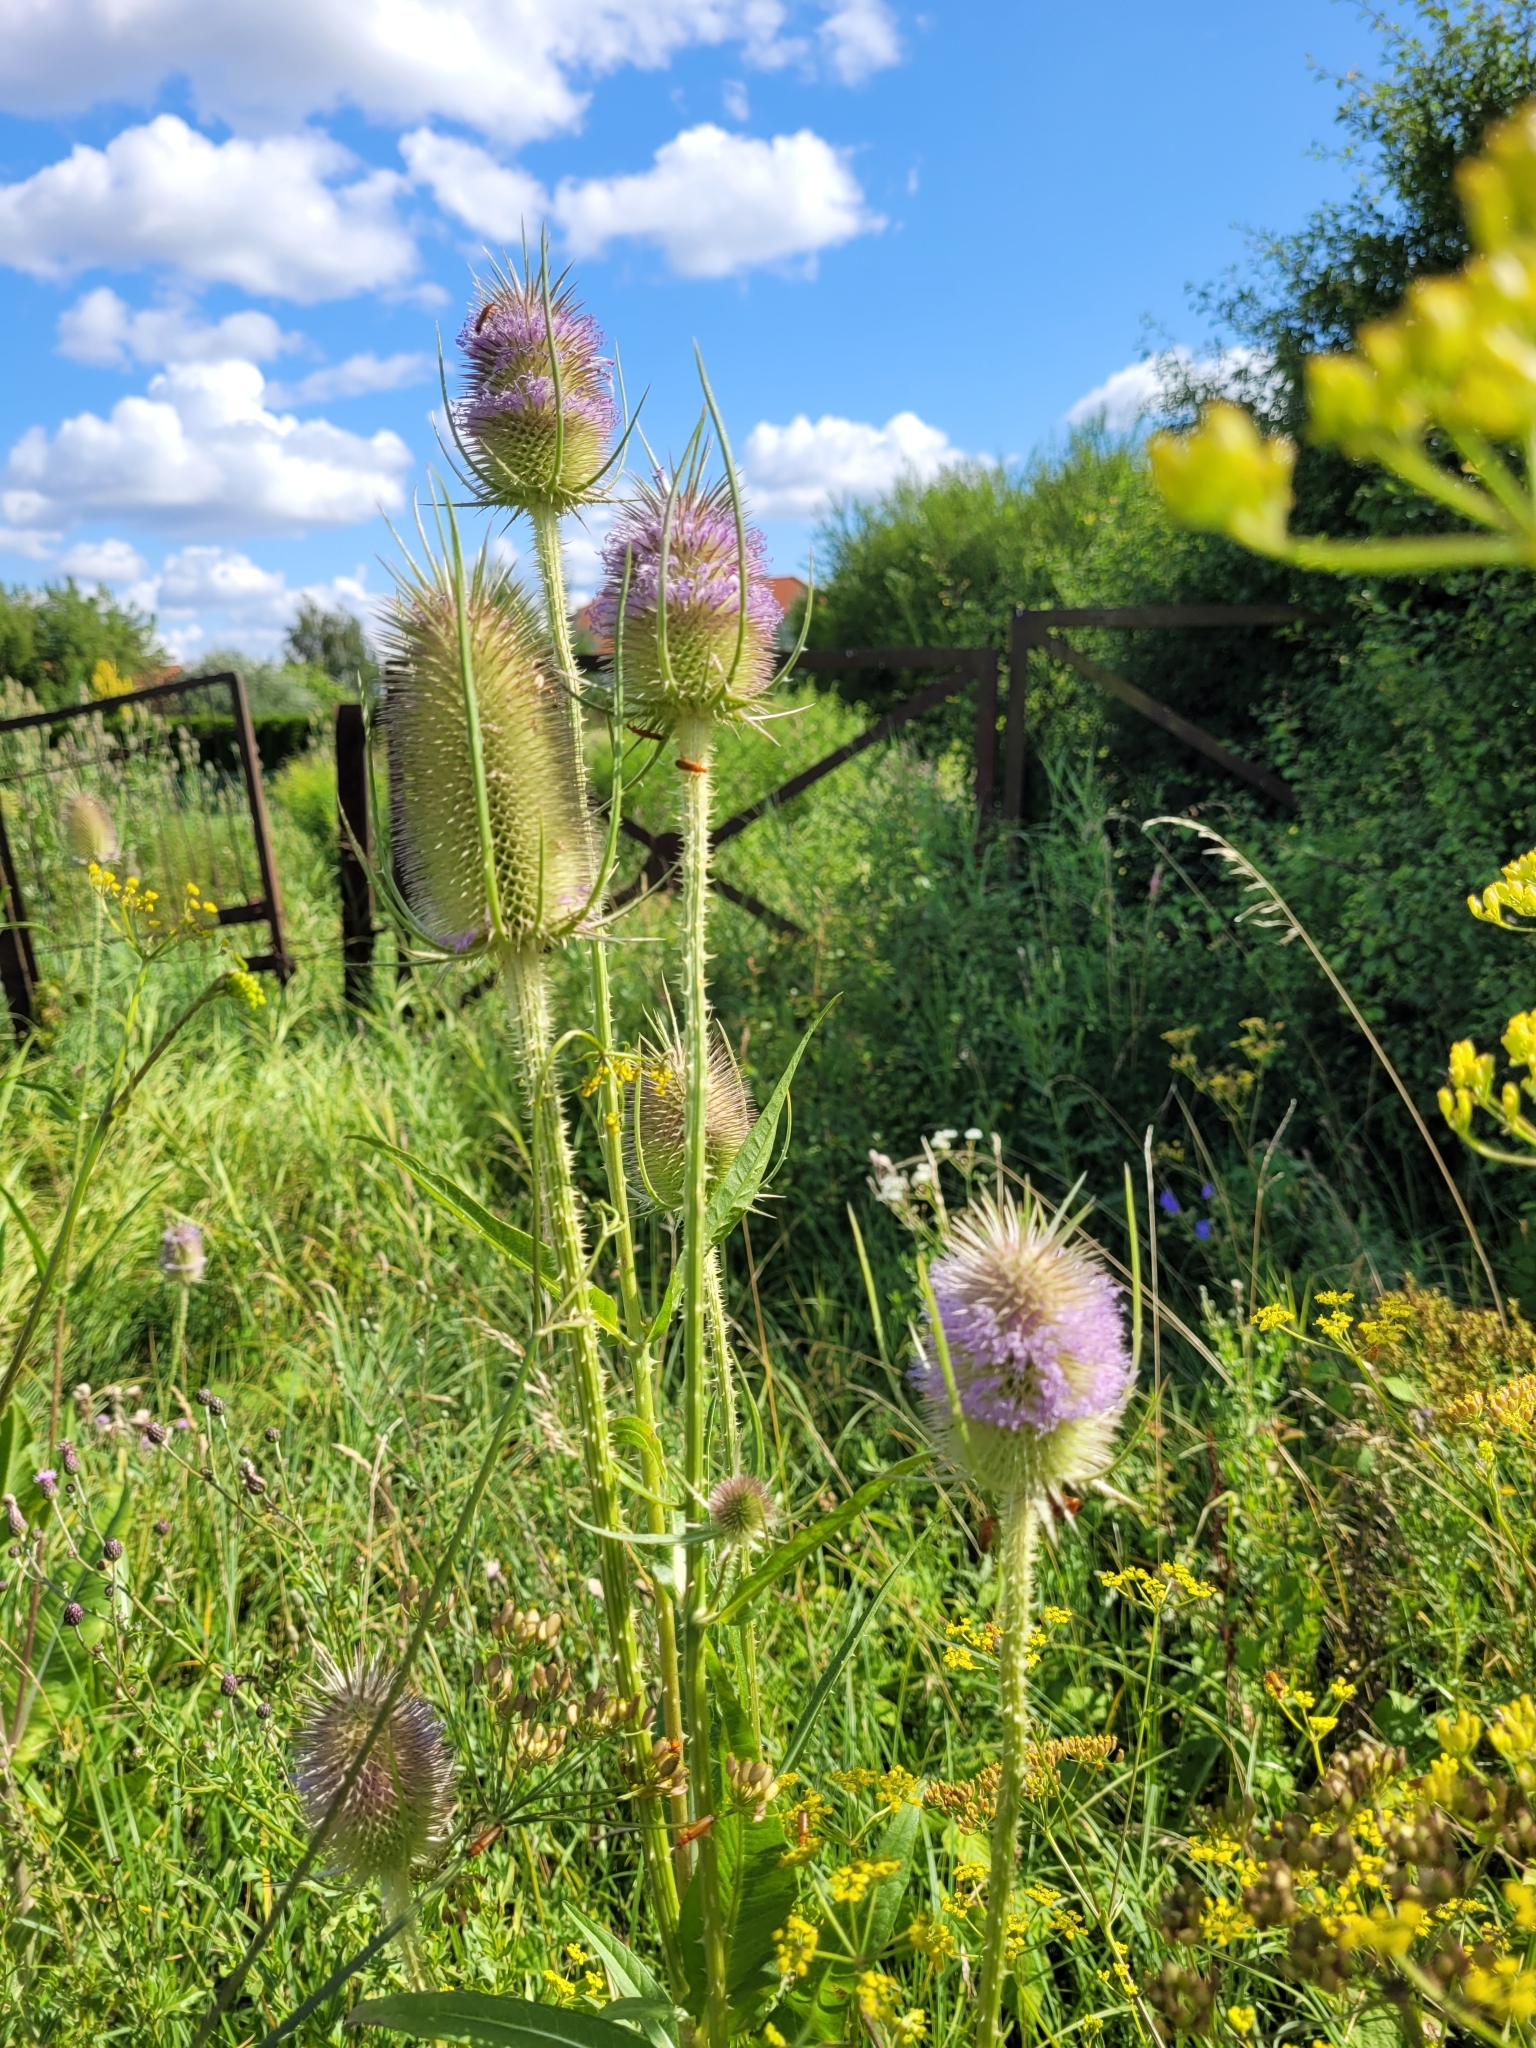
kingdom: Plantae
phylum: Tracheophyta
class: Magnoliopsida
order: Dipsacales
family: Caprifoliaceae
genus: Dipsacus
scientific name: Dipsacus fullonum
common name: Teasel
